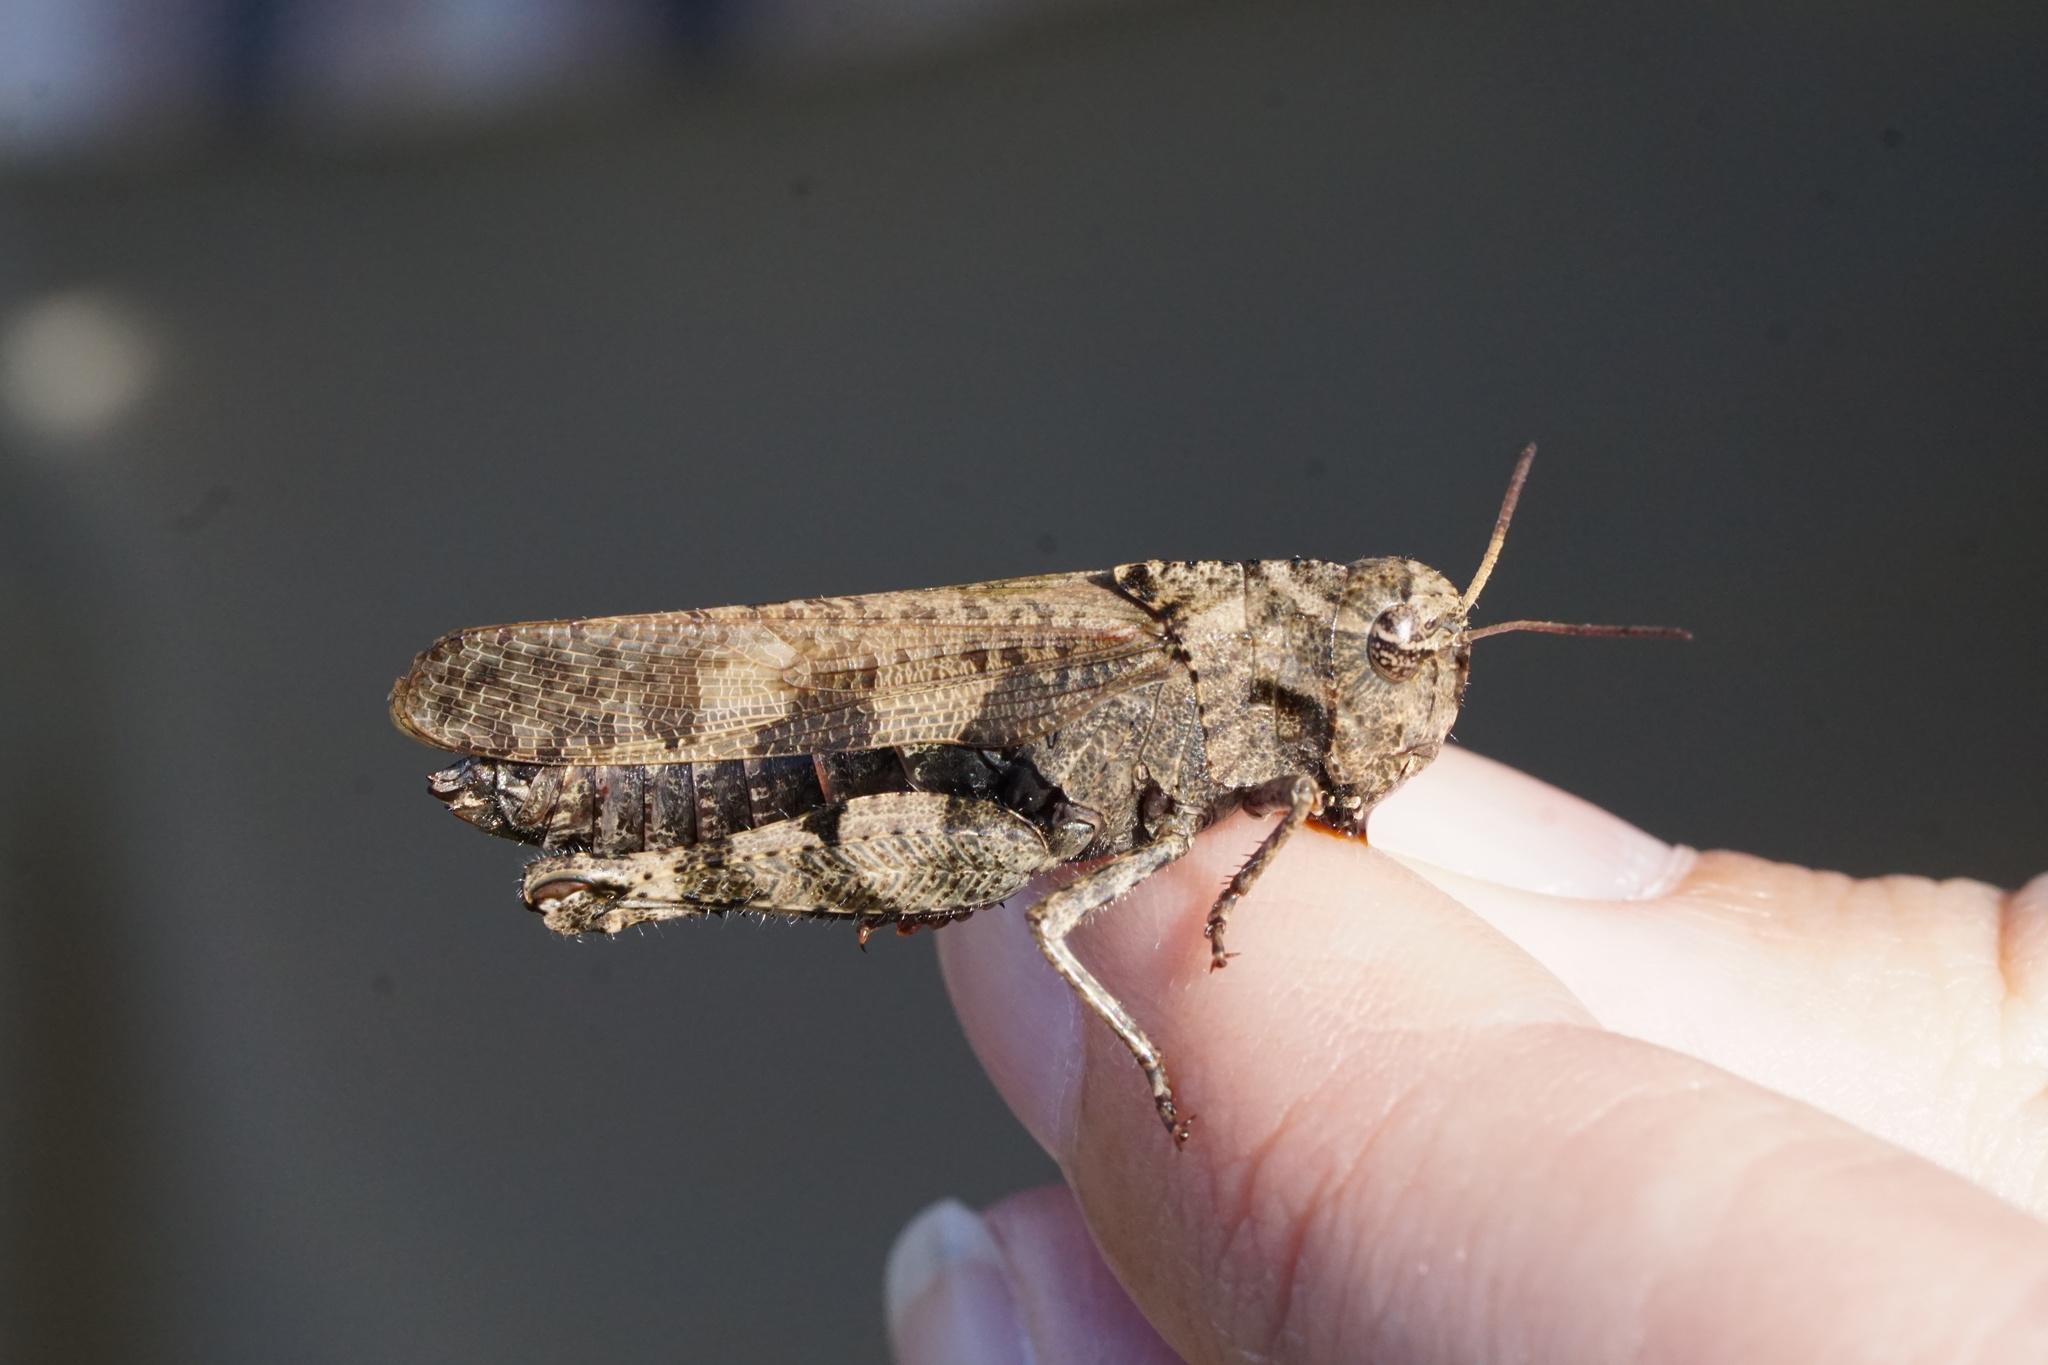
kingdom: Animalia
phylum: Arthropoda
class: Insecta
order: Orthoptera
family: Acrididae
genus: Encoptolophus
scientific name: Encoptolophus sordidus
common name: Dusky grasshopper
